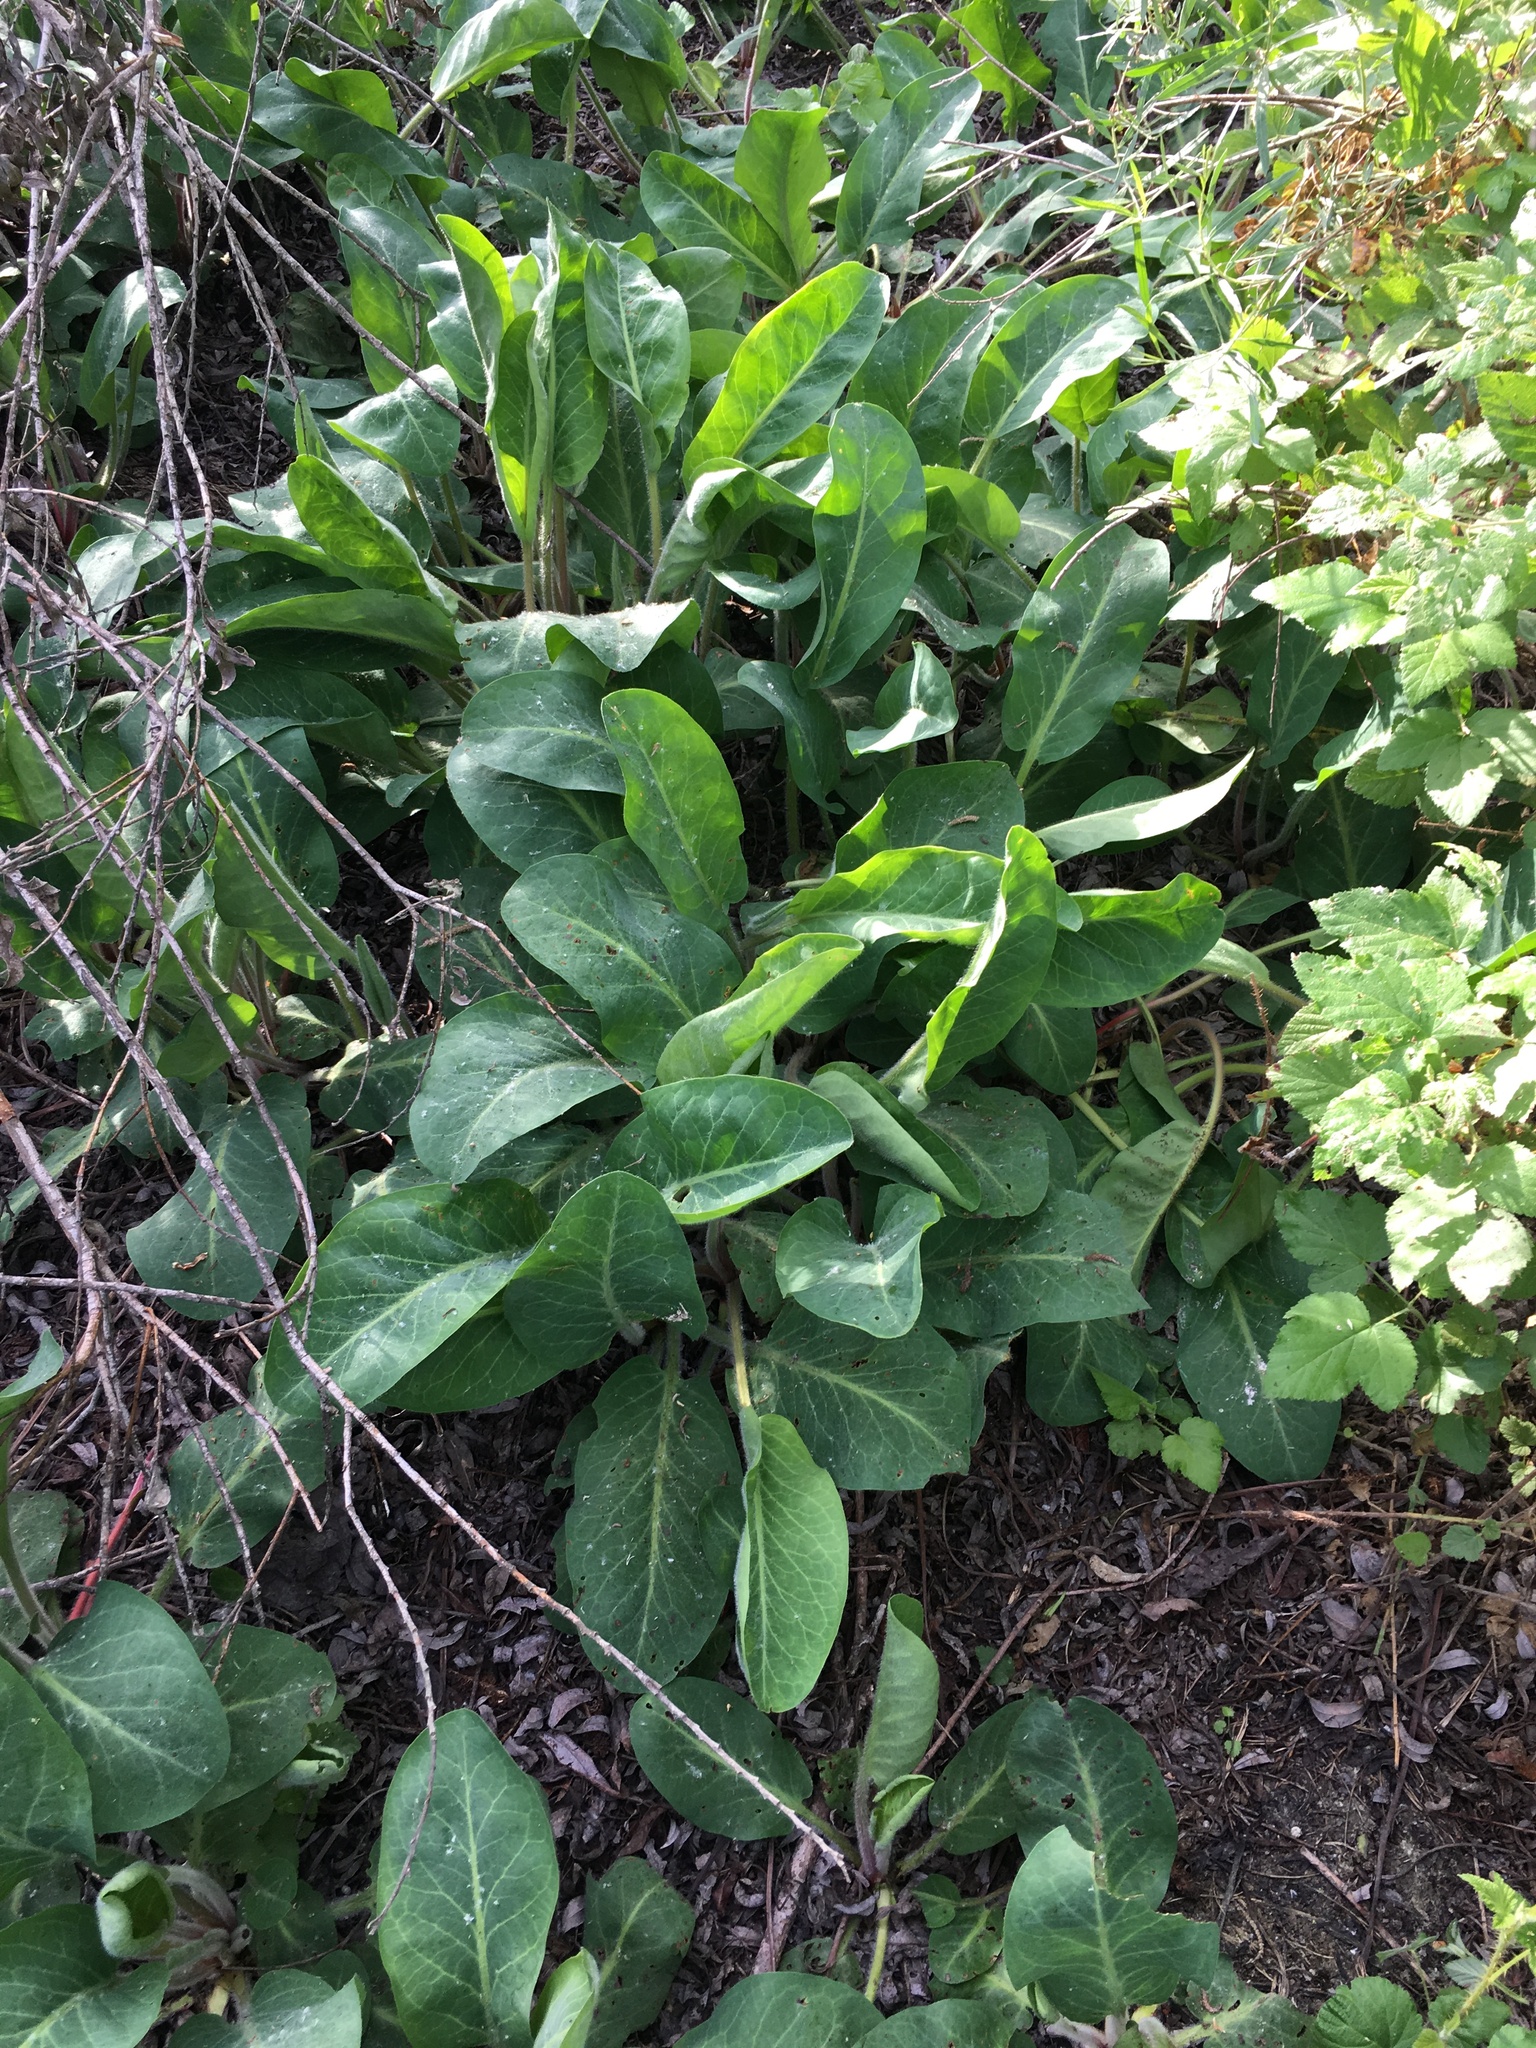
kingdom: Plantae
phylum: Tracheophyta
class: Magnoliopsida
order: Piperales
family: Saururaceae
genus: Anemopsis
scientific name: Anemopsis californica
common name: Apache-beads
